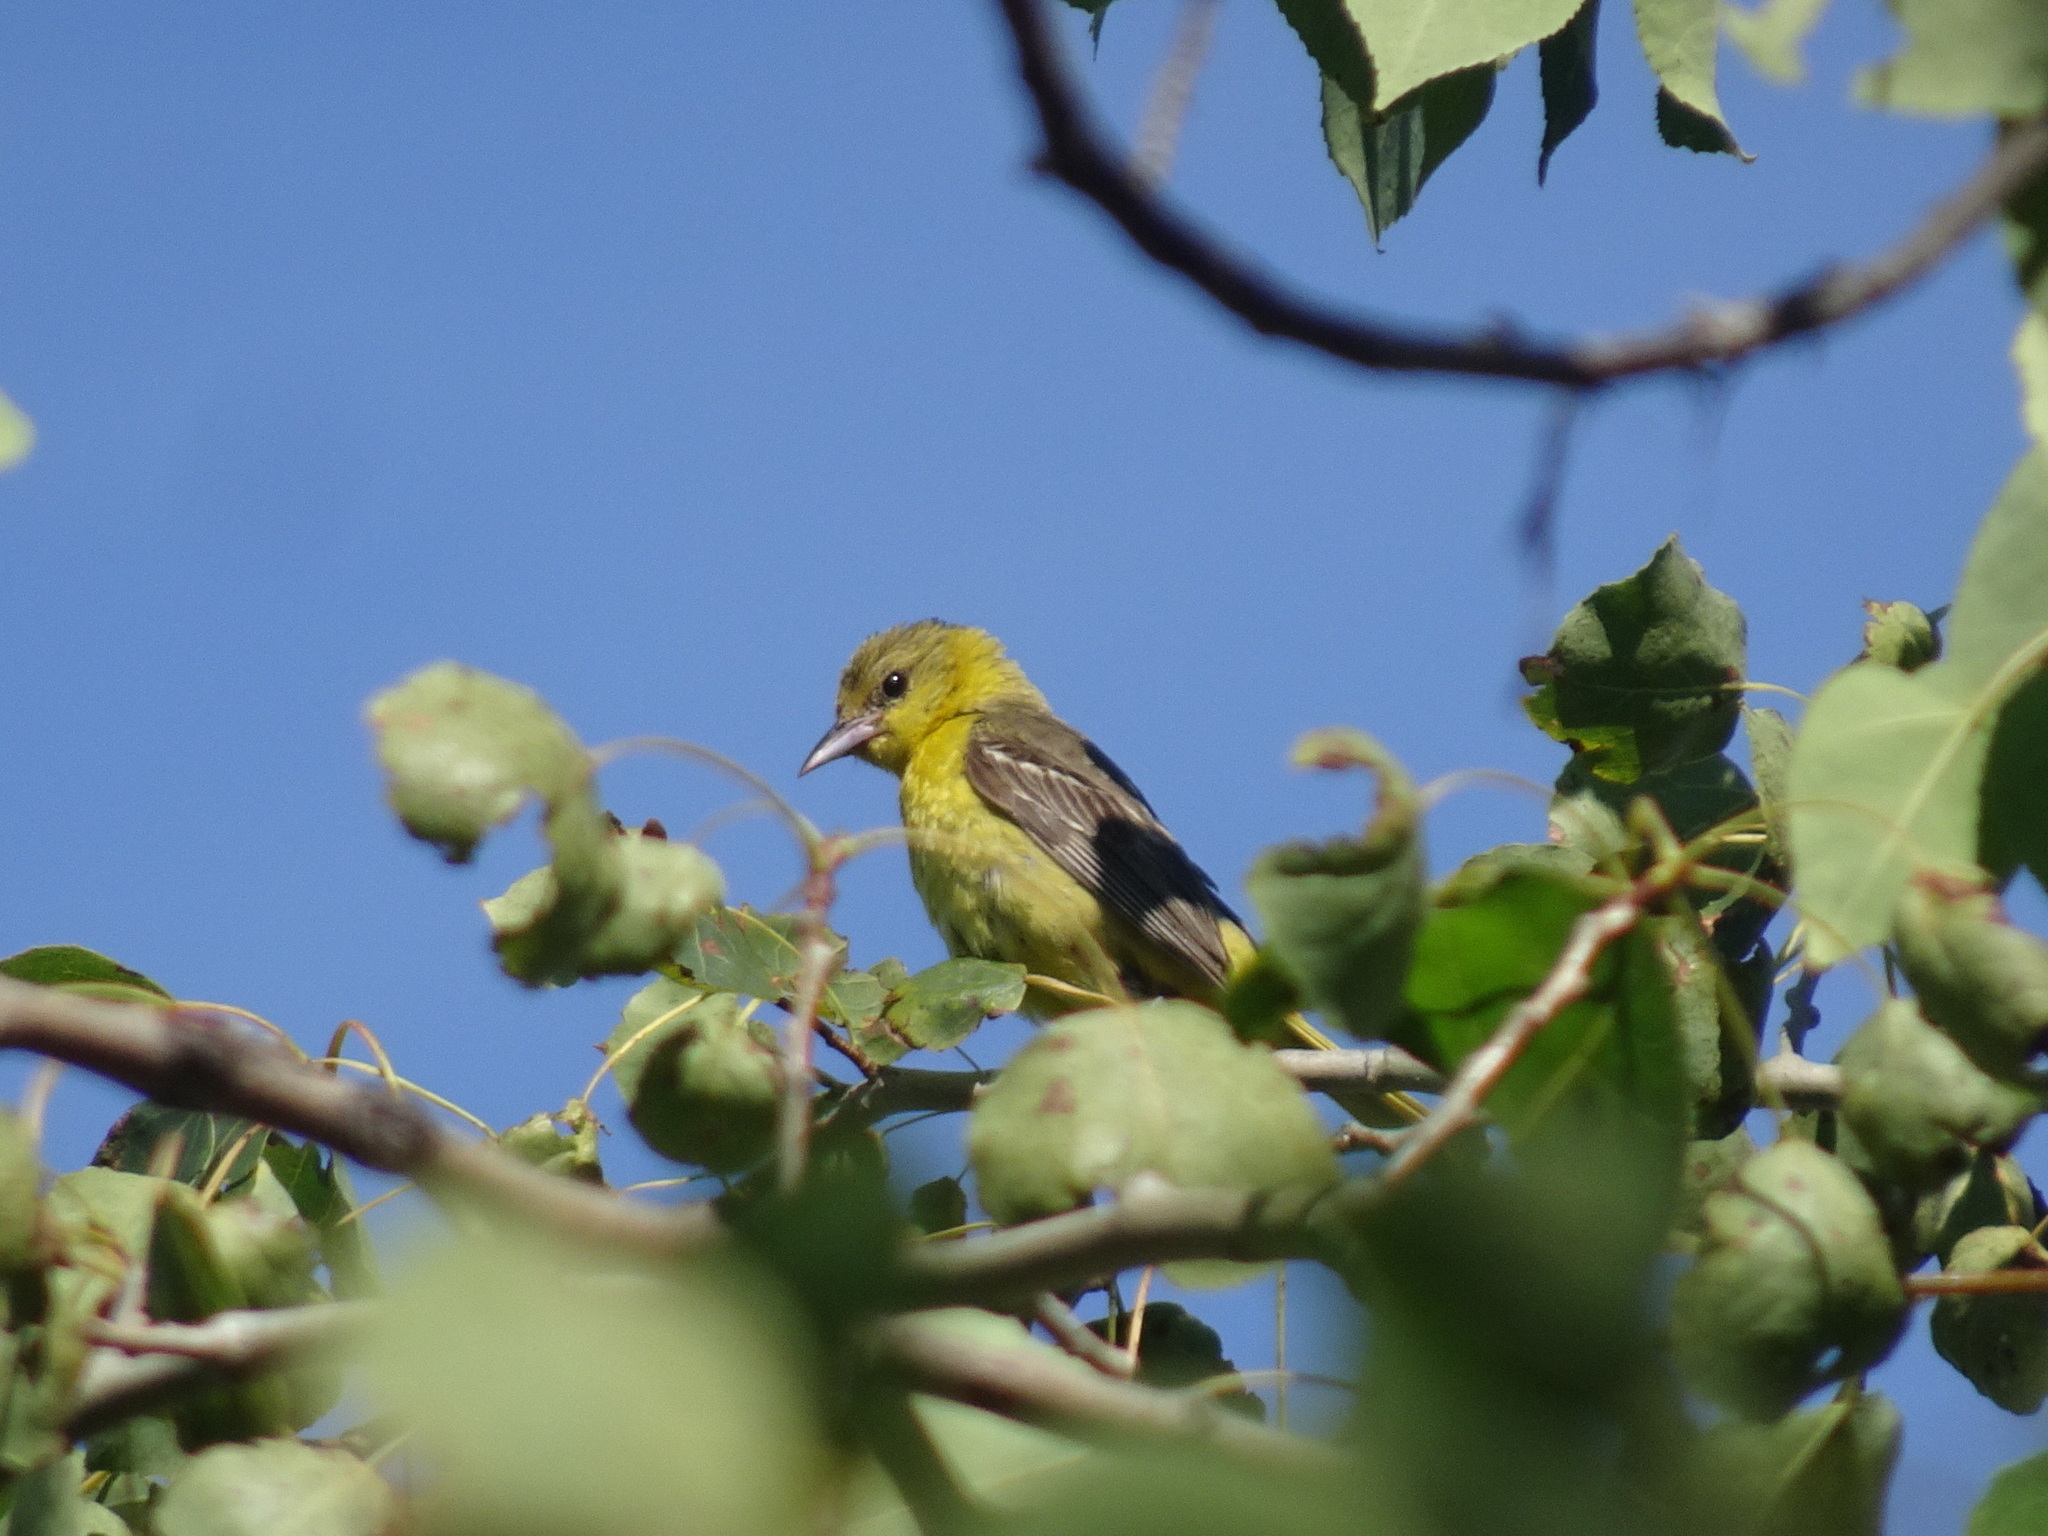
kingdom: Animalia
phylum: Chordata
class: Aves
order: Passeriformes
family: Icteridae
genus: Icterus
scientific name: Icterus spurius
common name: Orchard oriole
